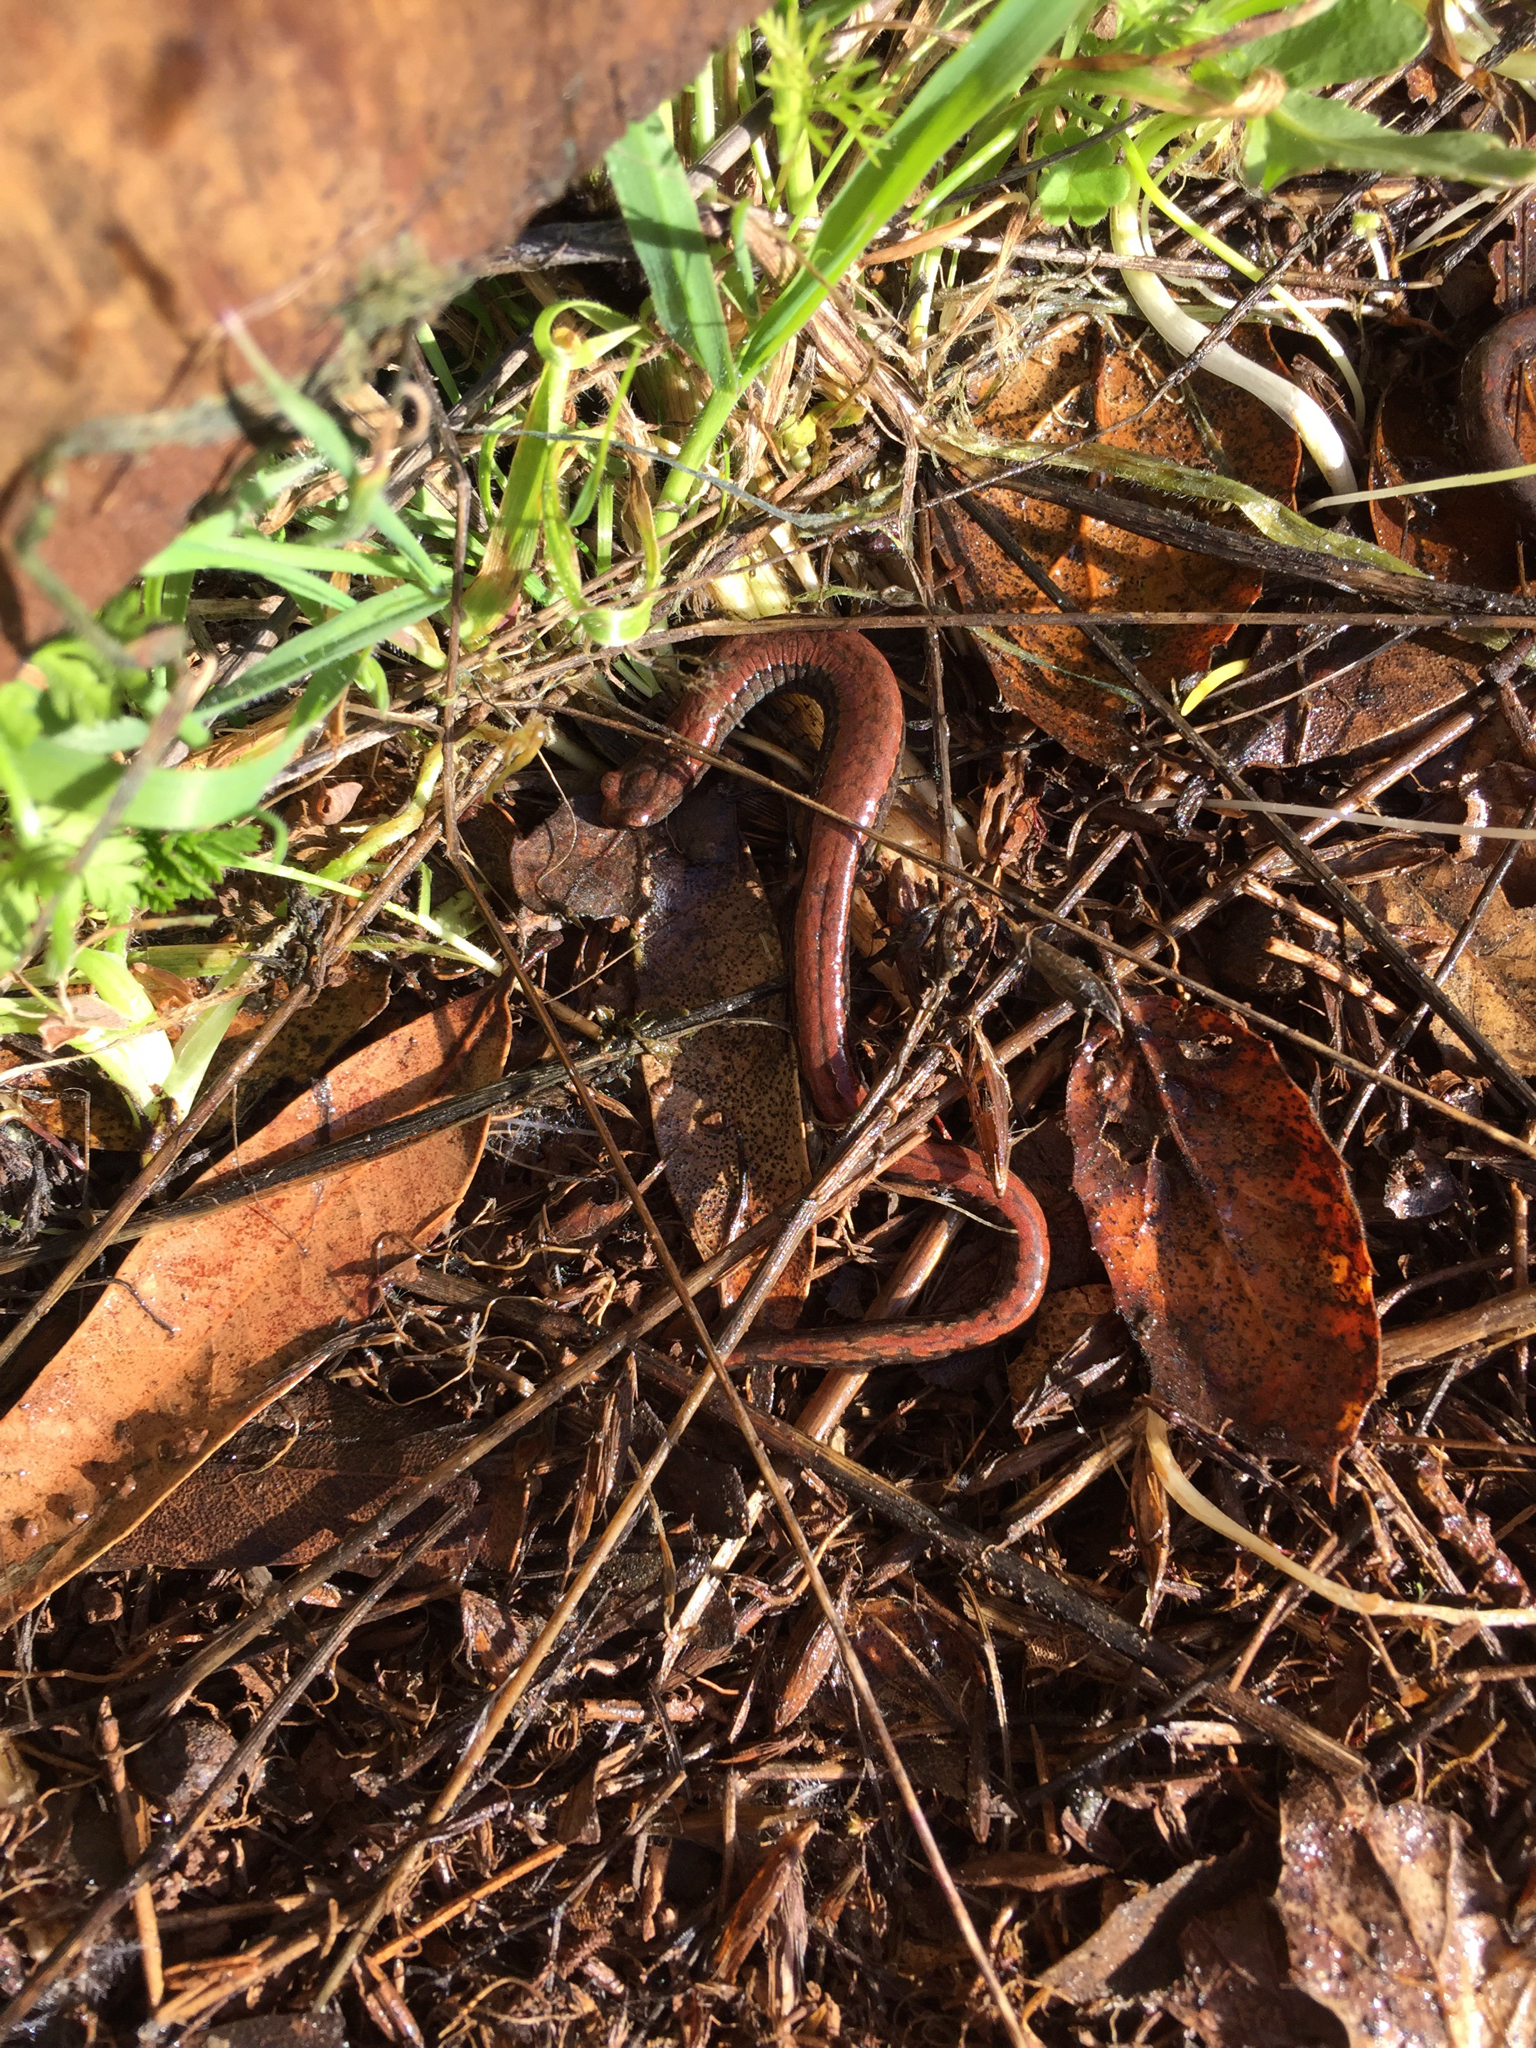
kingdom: Animalia
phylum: Chordata
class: Amphibia
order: Caudata
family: Plethodontidae
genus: Batrachoseps
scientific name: Batrachoseps attenuatus
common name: California slender salamander
